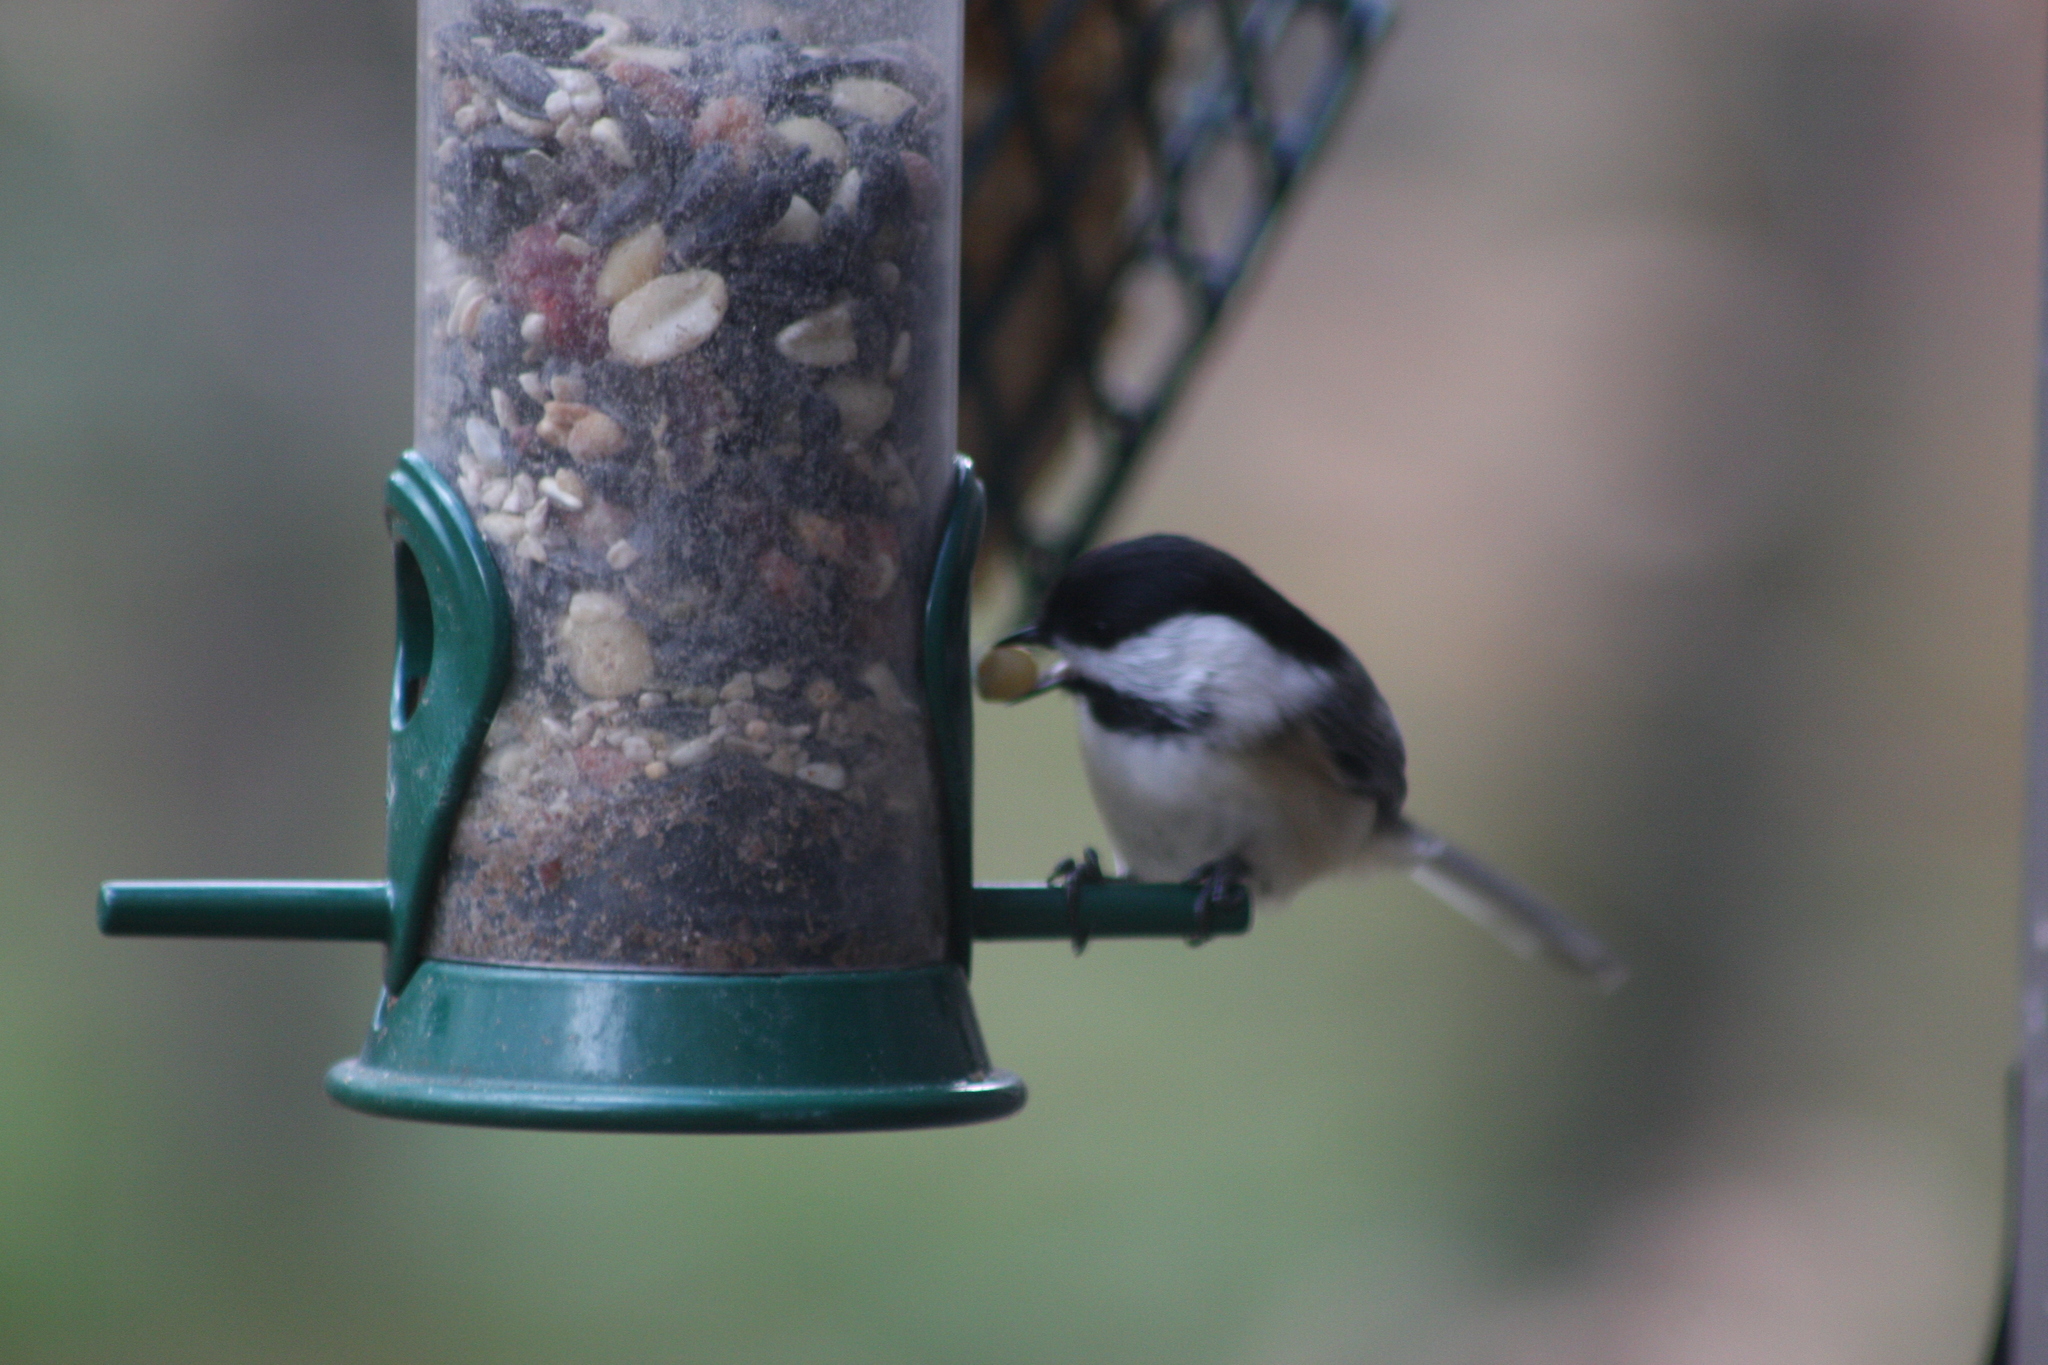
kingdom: Animalia
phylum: Chordata
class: Aves
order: Passeriformes
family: Paridae
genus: Poecile
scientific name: Poecile atricapillus
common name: Black-capped chickadee
